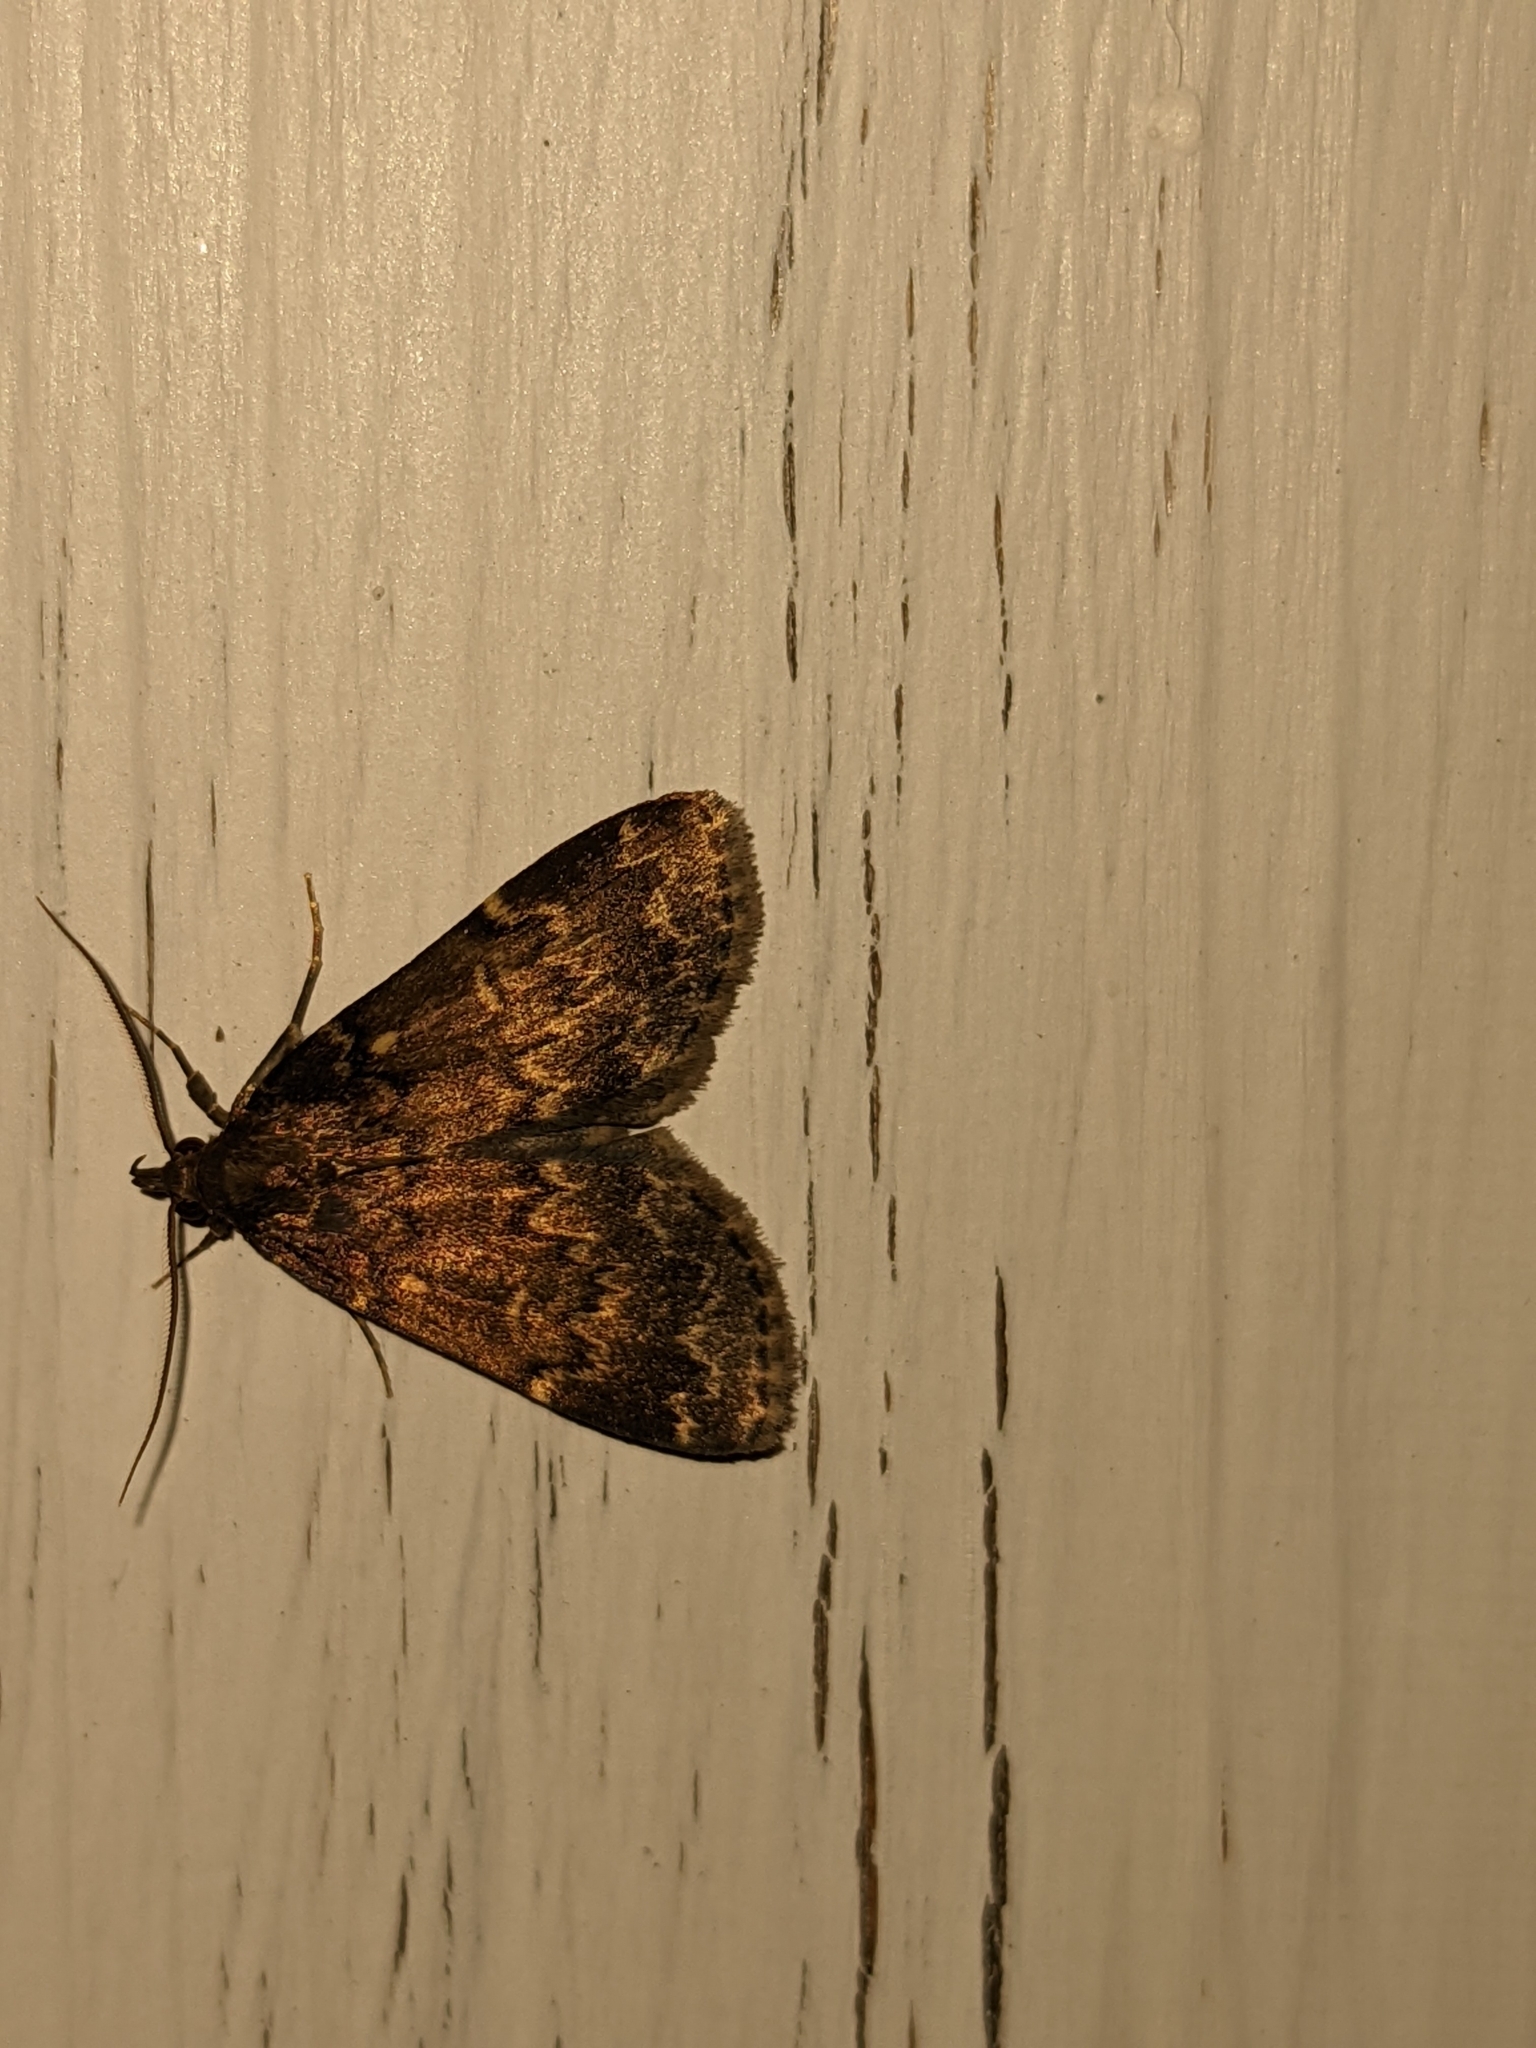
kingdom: Animalia
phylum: Arthropoda
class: Insecta
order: Lepidoptera
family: Erebidae
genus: Idia
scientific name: Idia lubricalis
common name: Twin-striped tabby
